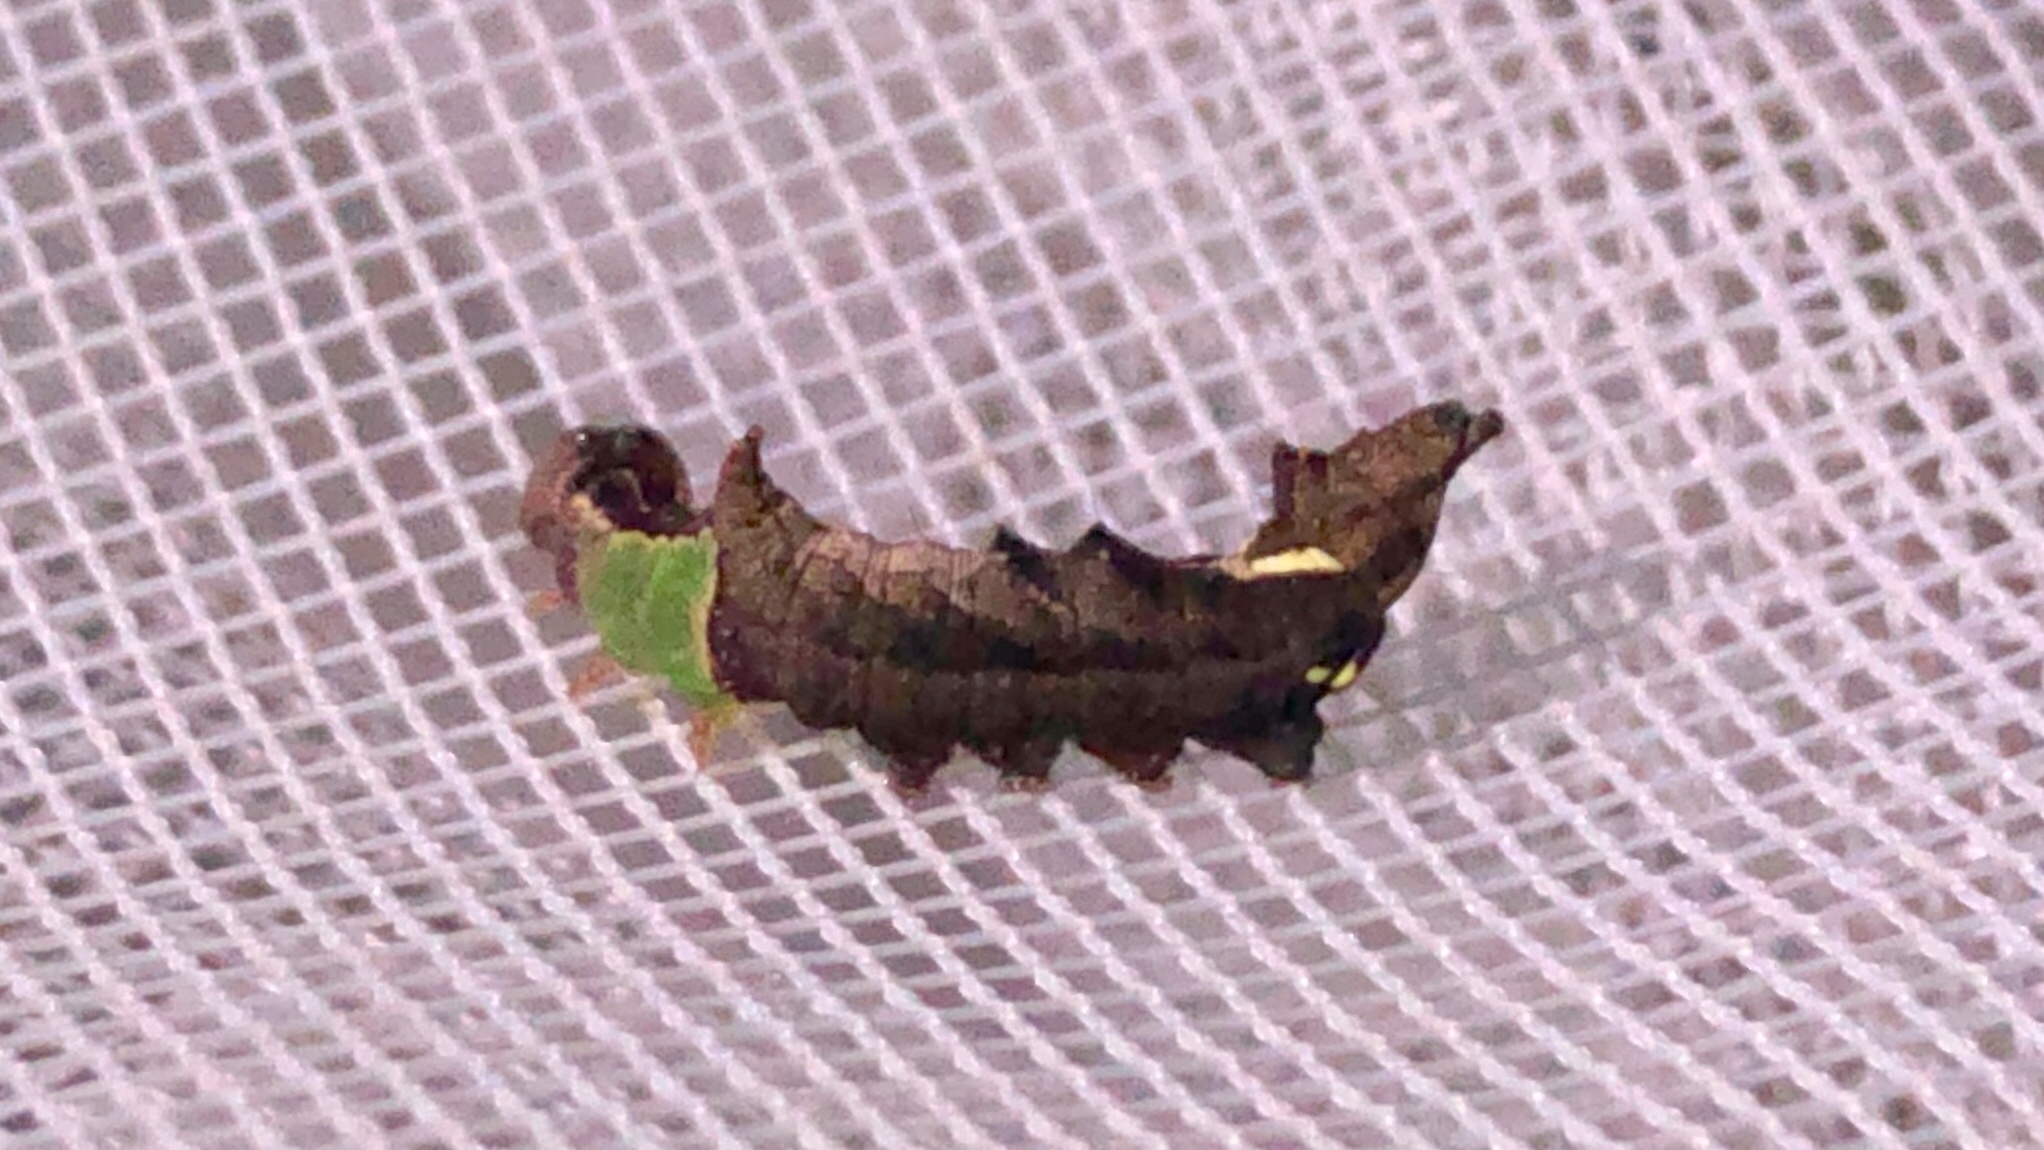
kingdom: Animalia
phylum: Arthropoda
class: Insecta
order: Lepidoptera
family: Notodontidae
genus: Schizura
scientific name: Schizura
